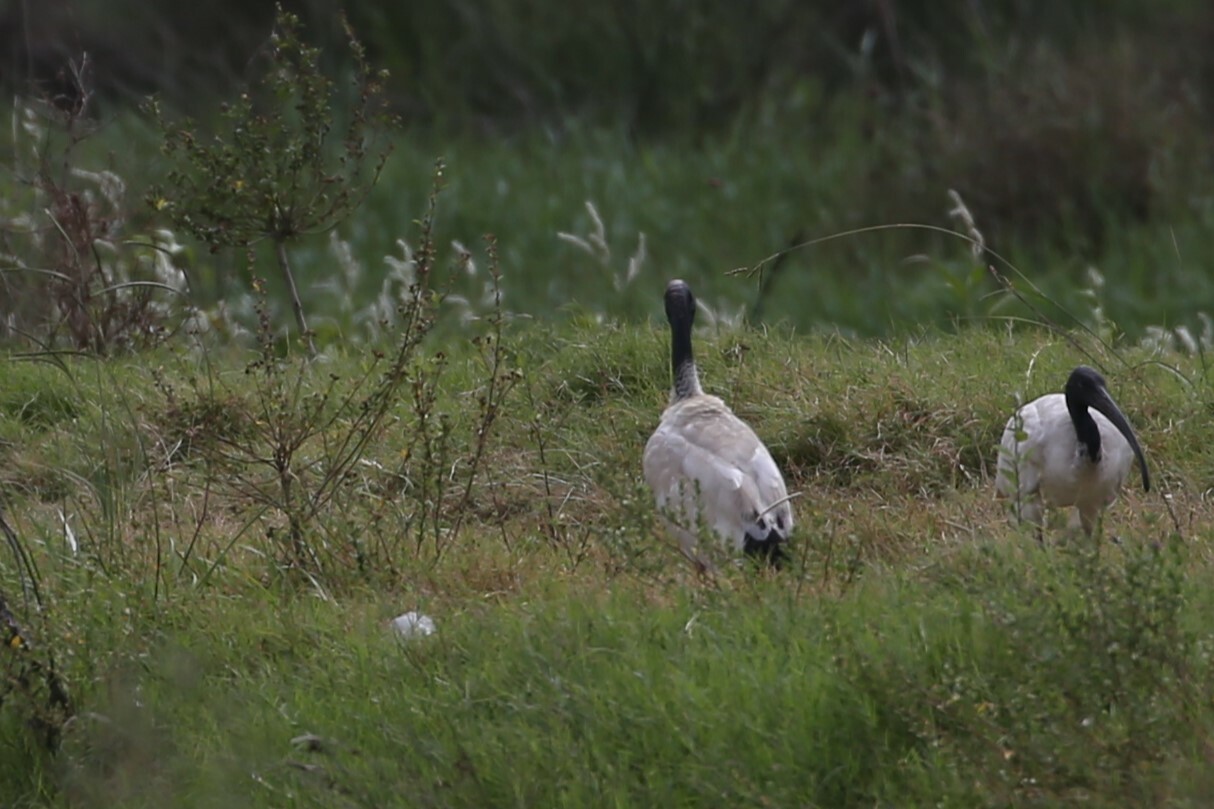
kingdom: Animalia
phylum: Chordata
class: Aves
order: Pelecaniformes
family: Threskiornithidae
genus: Threskiornis
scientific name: Threskiornis molucca
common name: Australian white ibis
